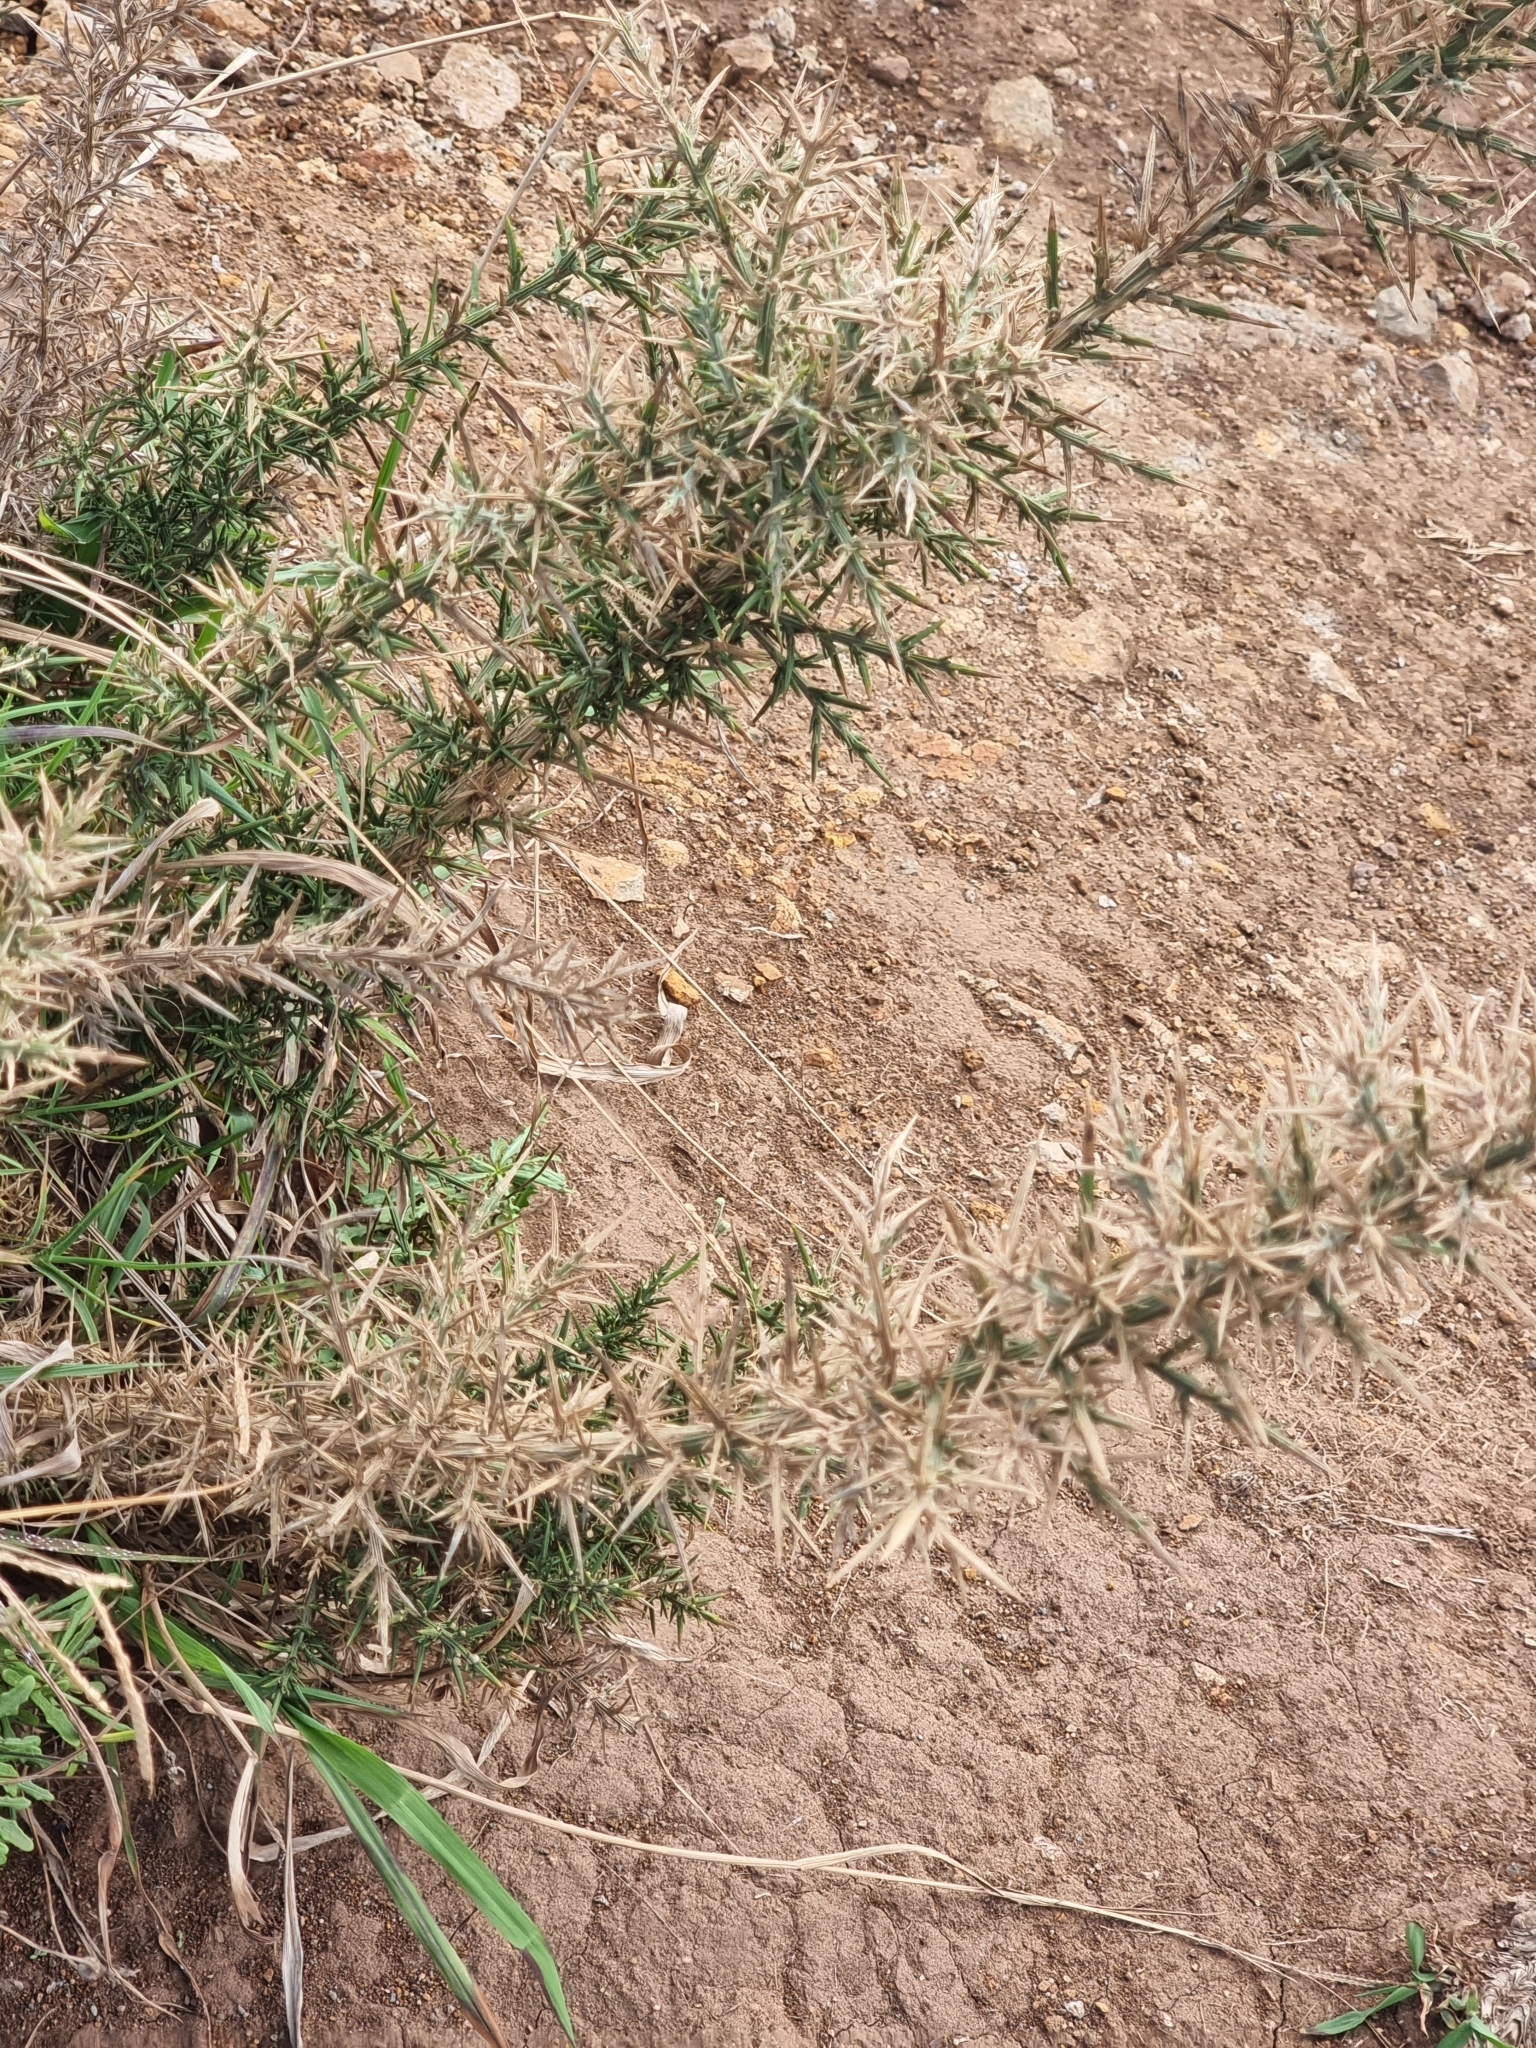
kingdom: Plantae
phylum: Tracheophyta
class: Magnoliopsida
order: Fabales
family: Fabaceae
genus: Ulex
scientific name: Ulex europaeus
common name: Common gorse
